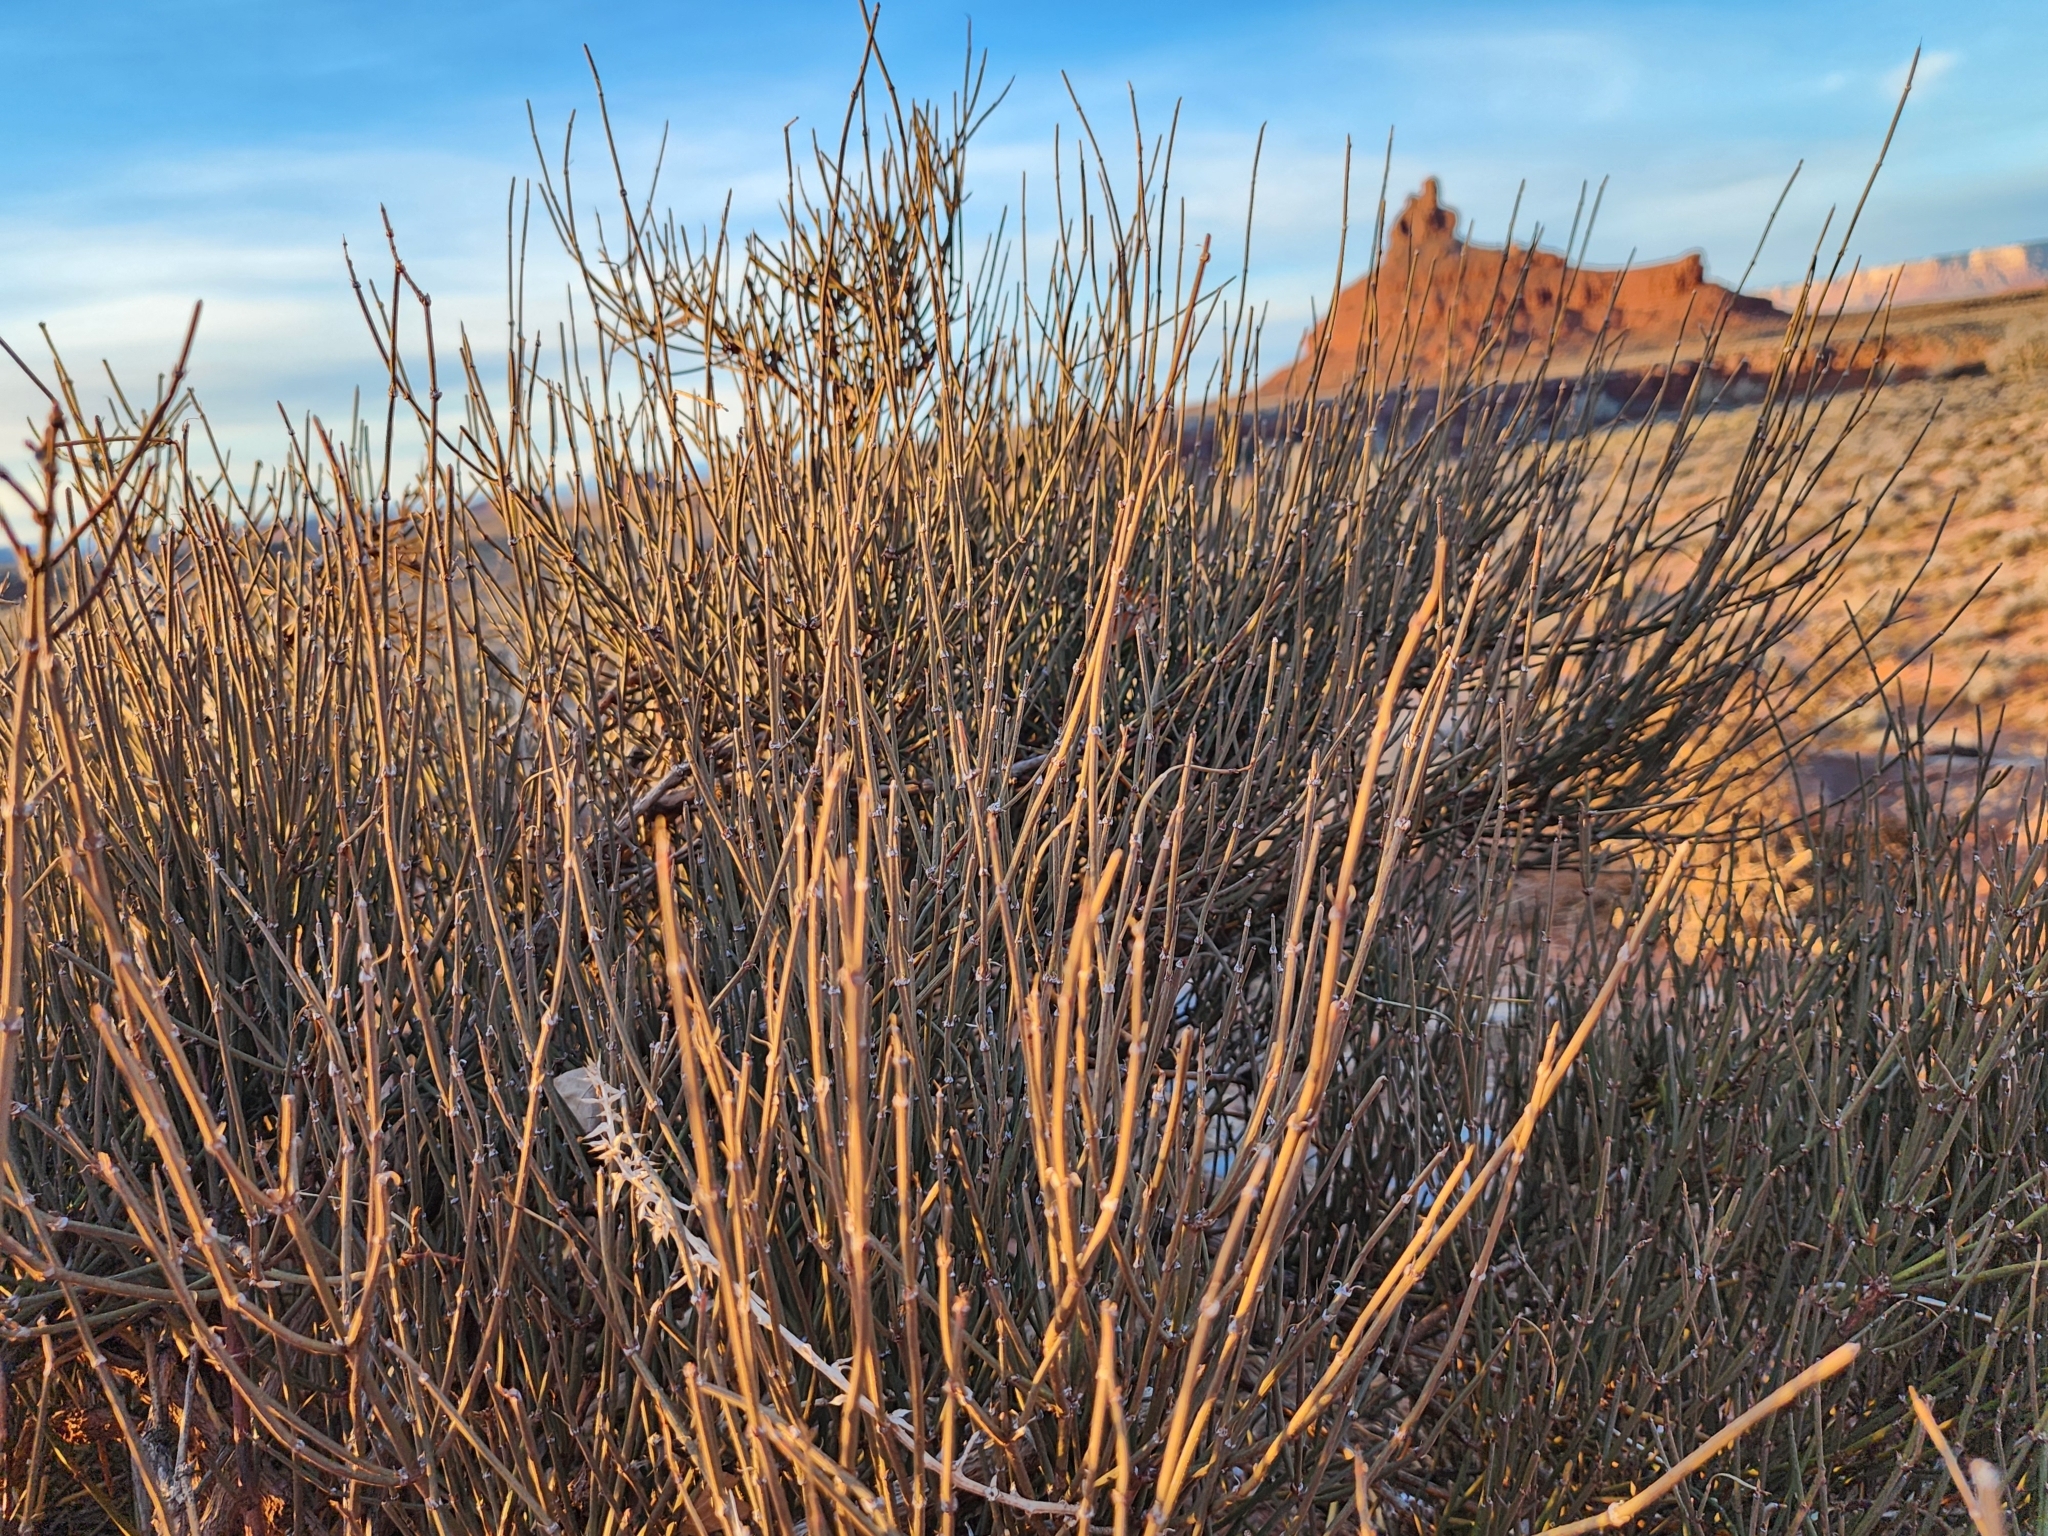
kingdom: Plantae
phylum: Tracheophyta
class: Gnetopsida
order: Ephedrales
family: Ephedraceae
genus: Ephedra
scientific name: Ephedra viridis
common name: Green ephedra
